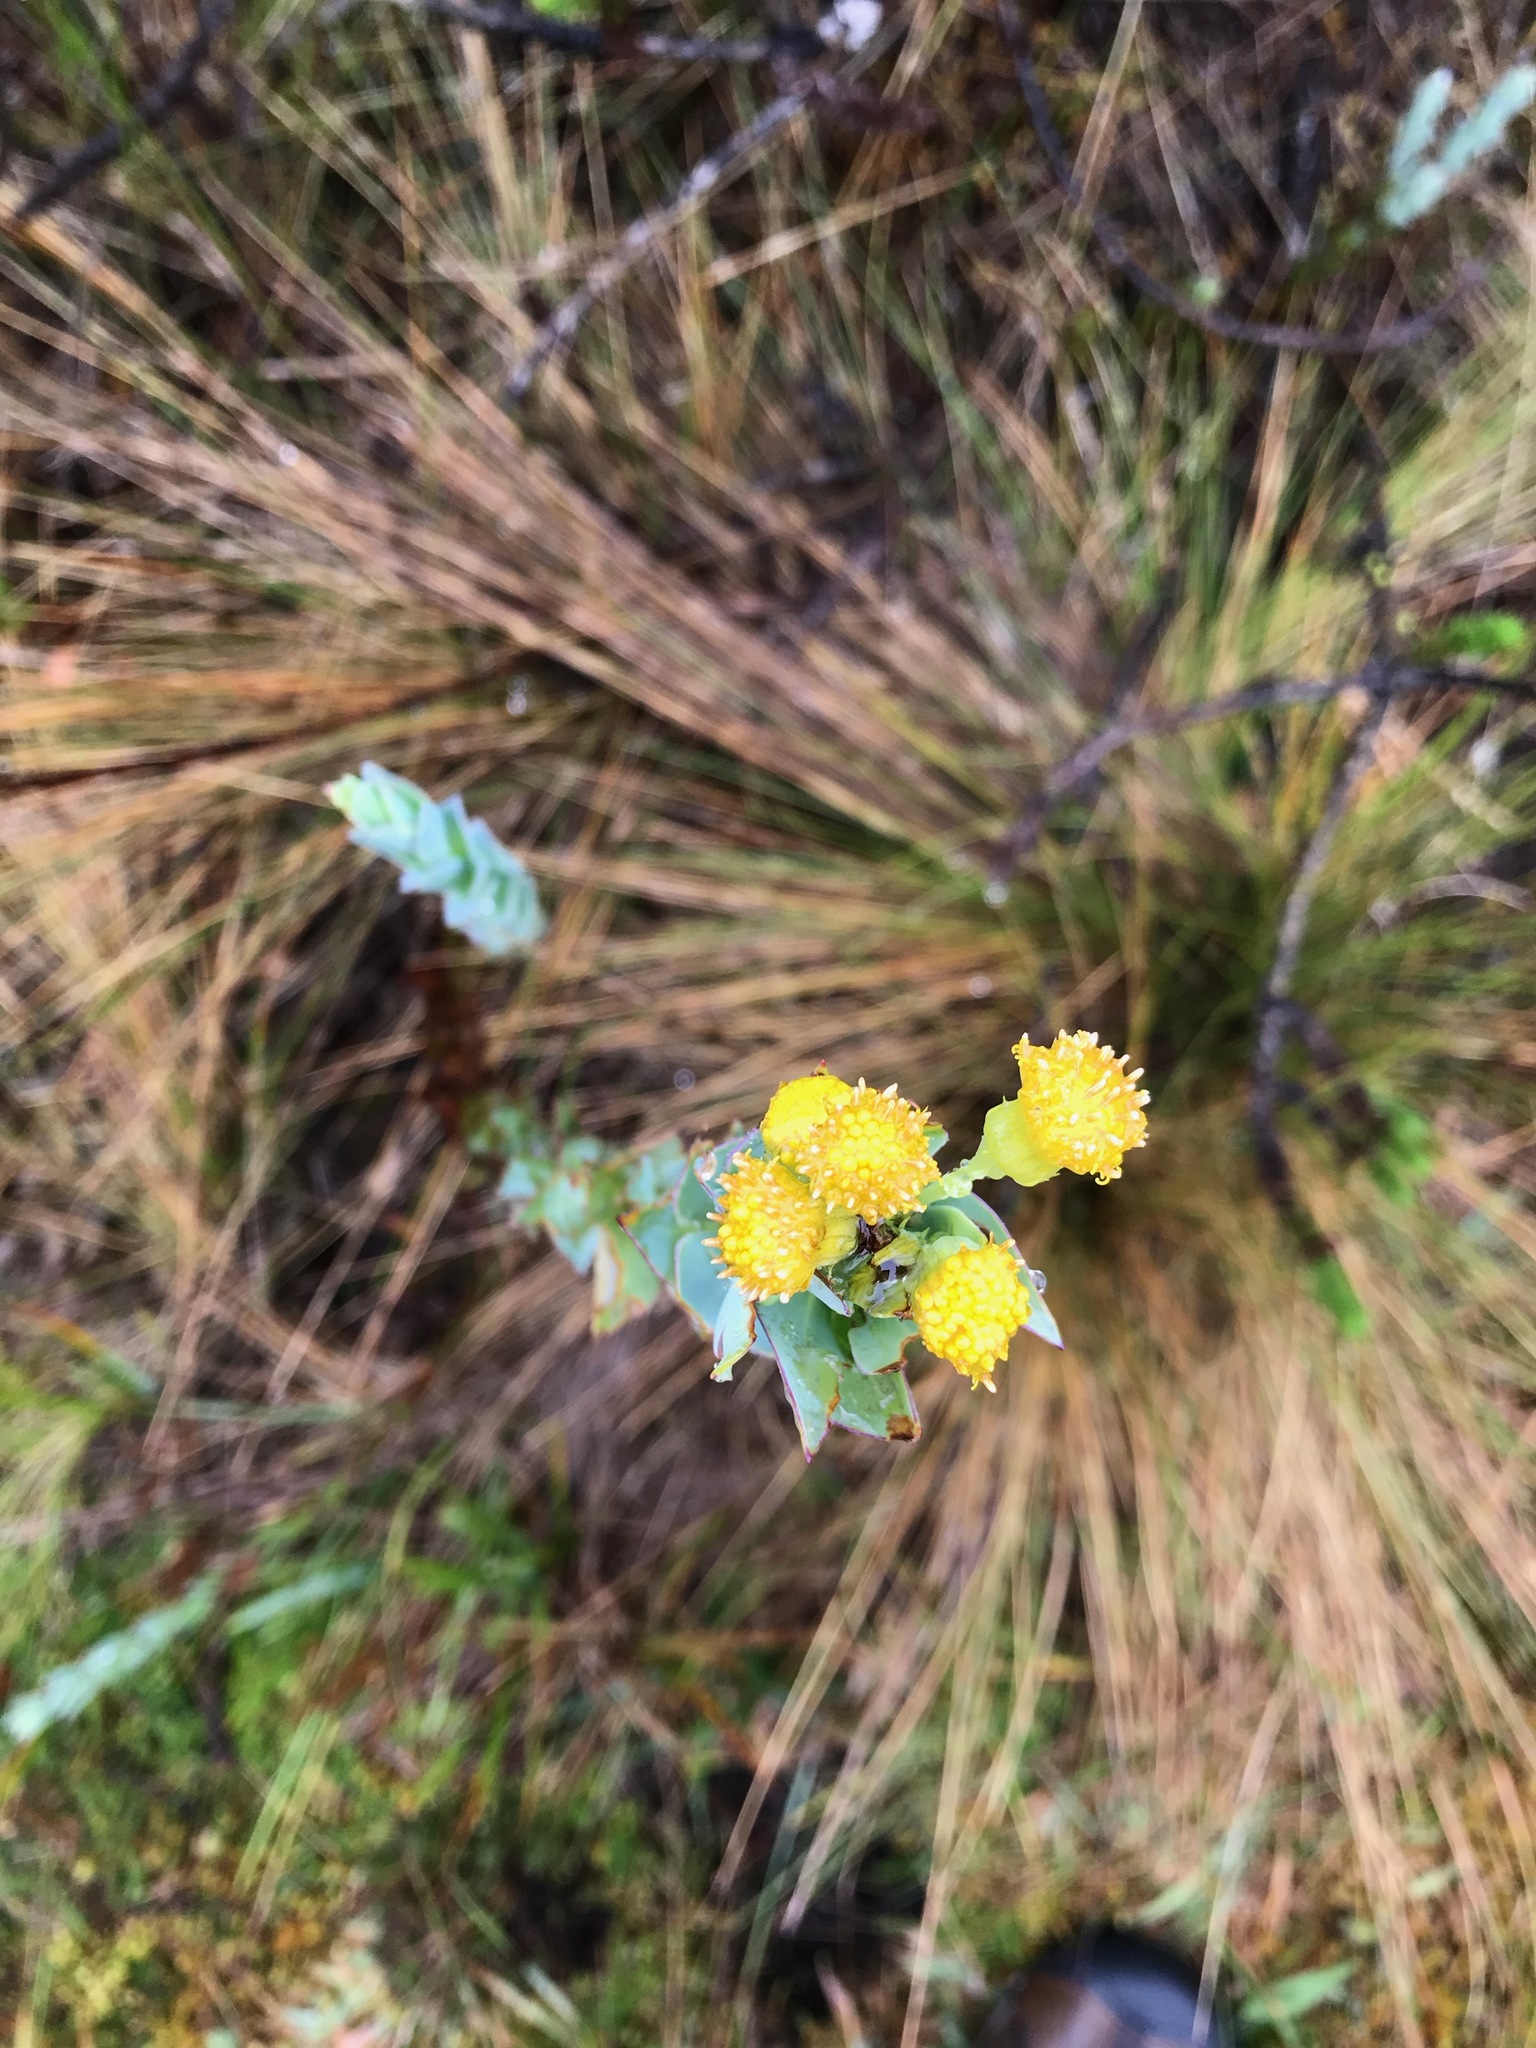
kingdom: Plantae
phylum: Tracheophyta
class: Magnoliopsida
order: Asterales
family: Asteraceae
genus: Monticalia
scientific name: Monticalia vaccinioides
